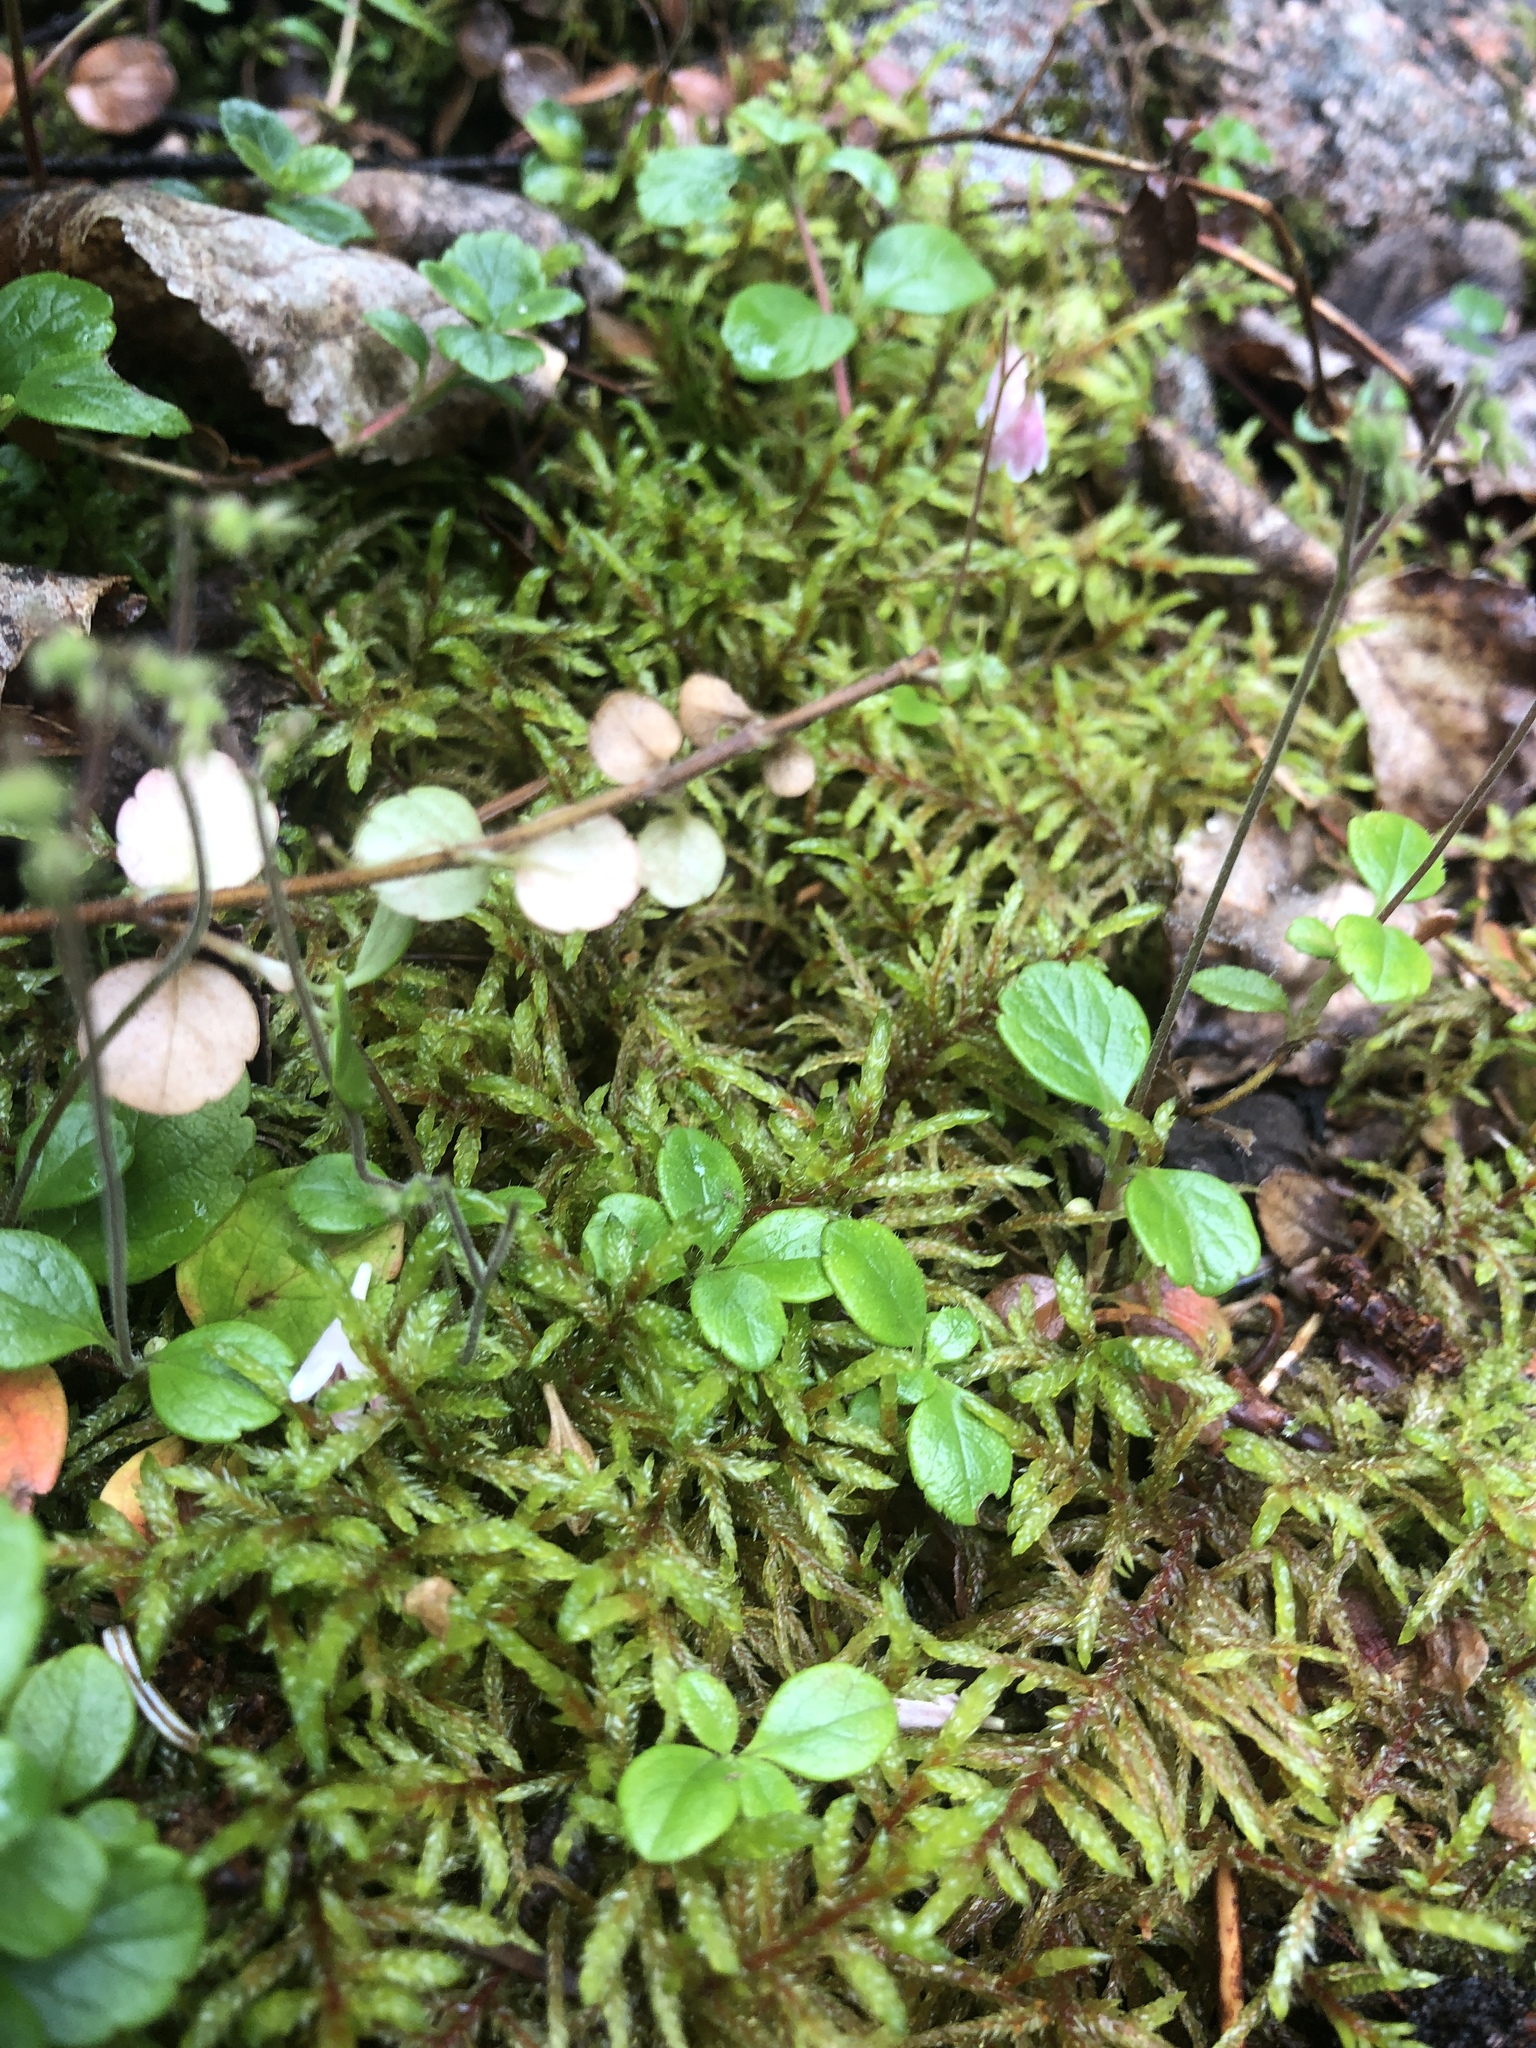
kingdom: Plantae
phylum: Tracheophyta
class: Magnoliopsida
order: Dipsacales
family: Caprifoliaceae
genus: Linnaea
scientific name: Linnaea borealis
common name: Twinflower
